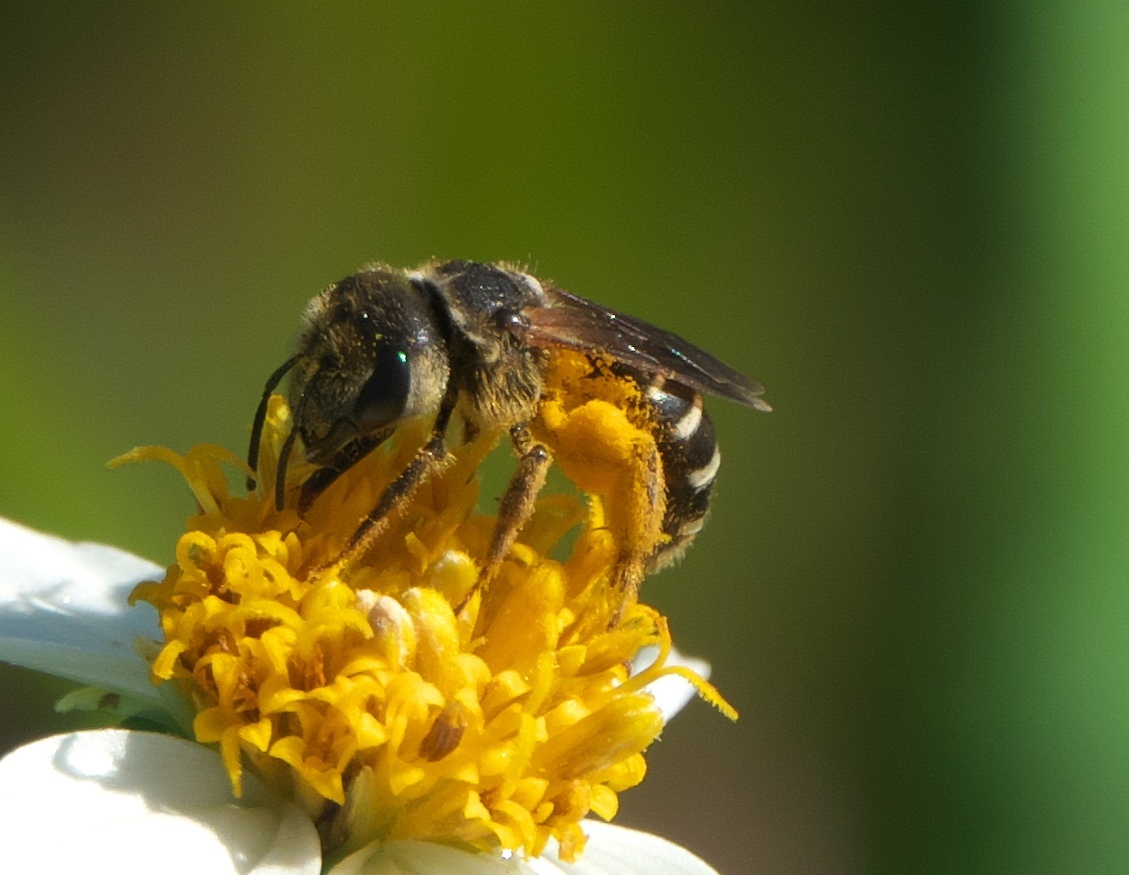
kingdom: Animalia
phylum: Arthropoda
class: Insecta
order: Hymenoptera
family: Halictidae
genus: Halictus
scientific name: Halictus poeyi
